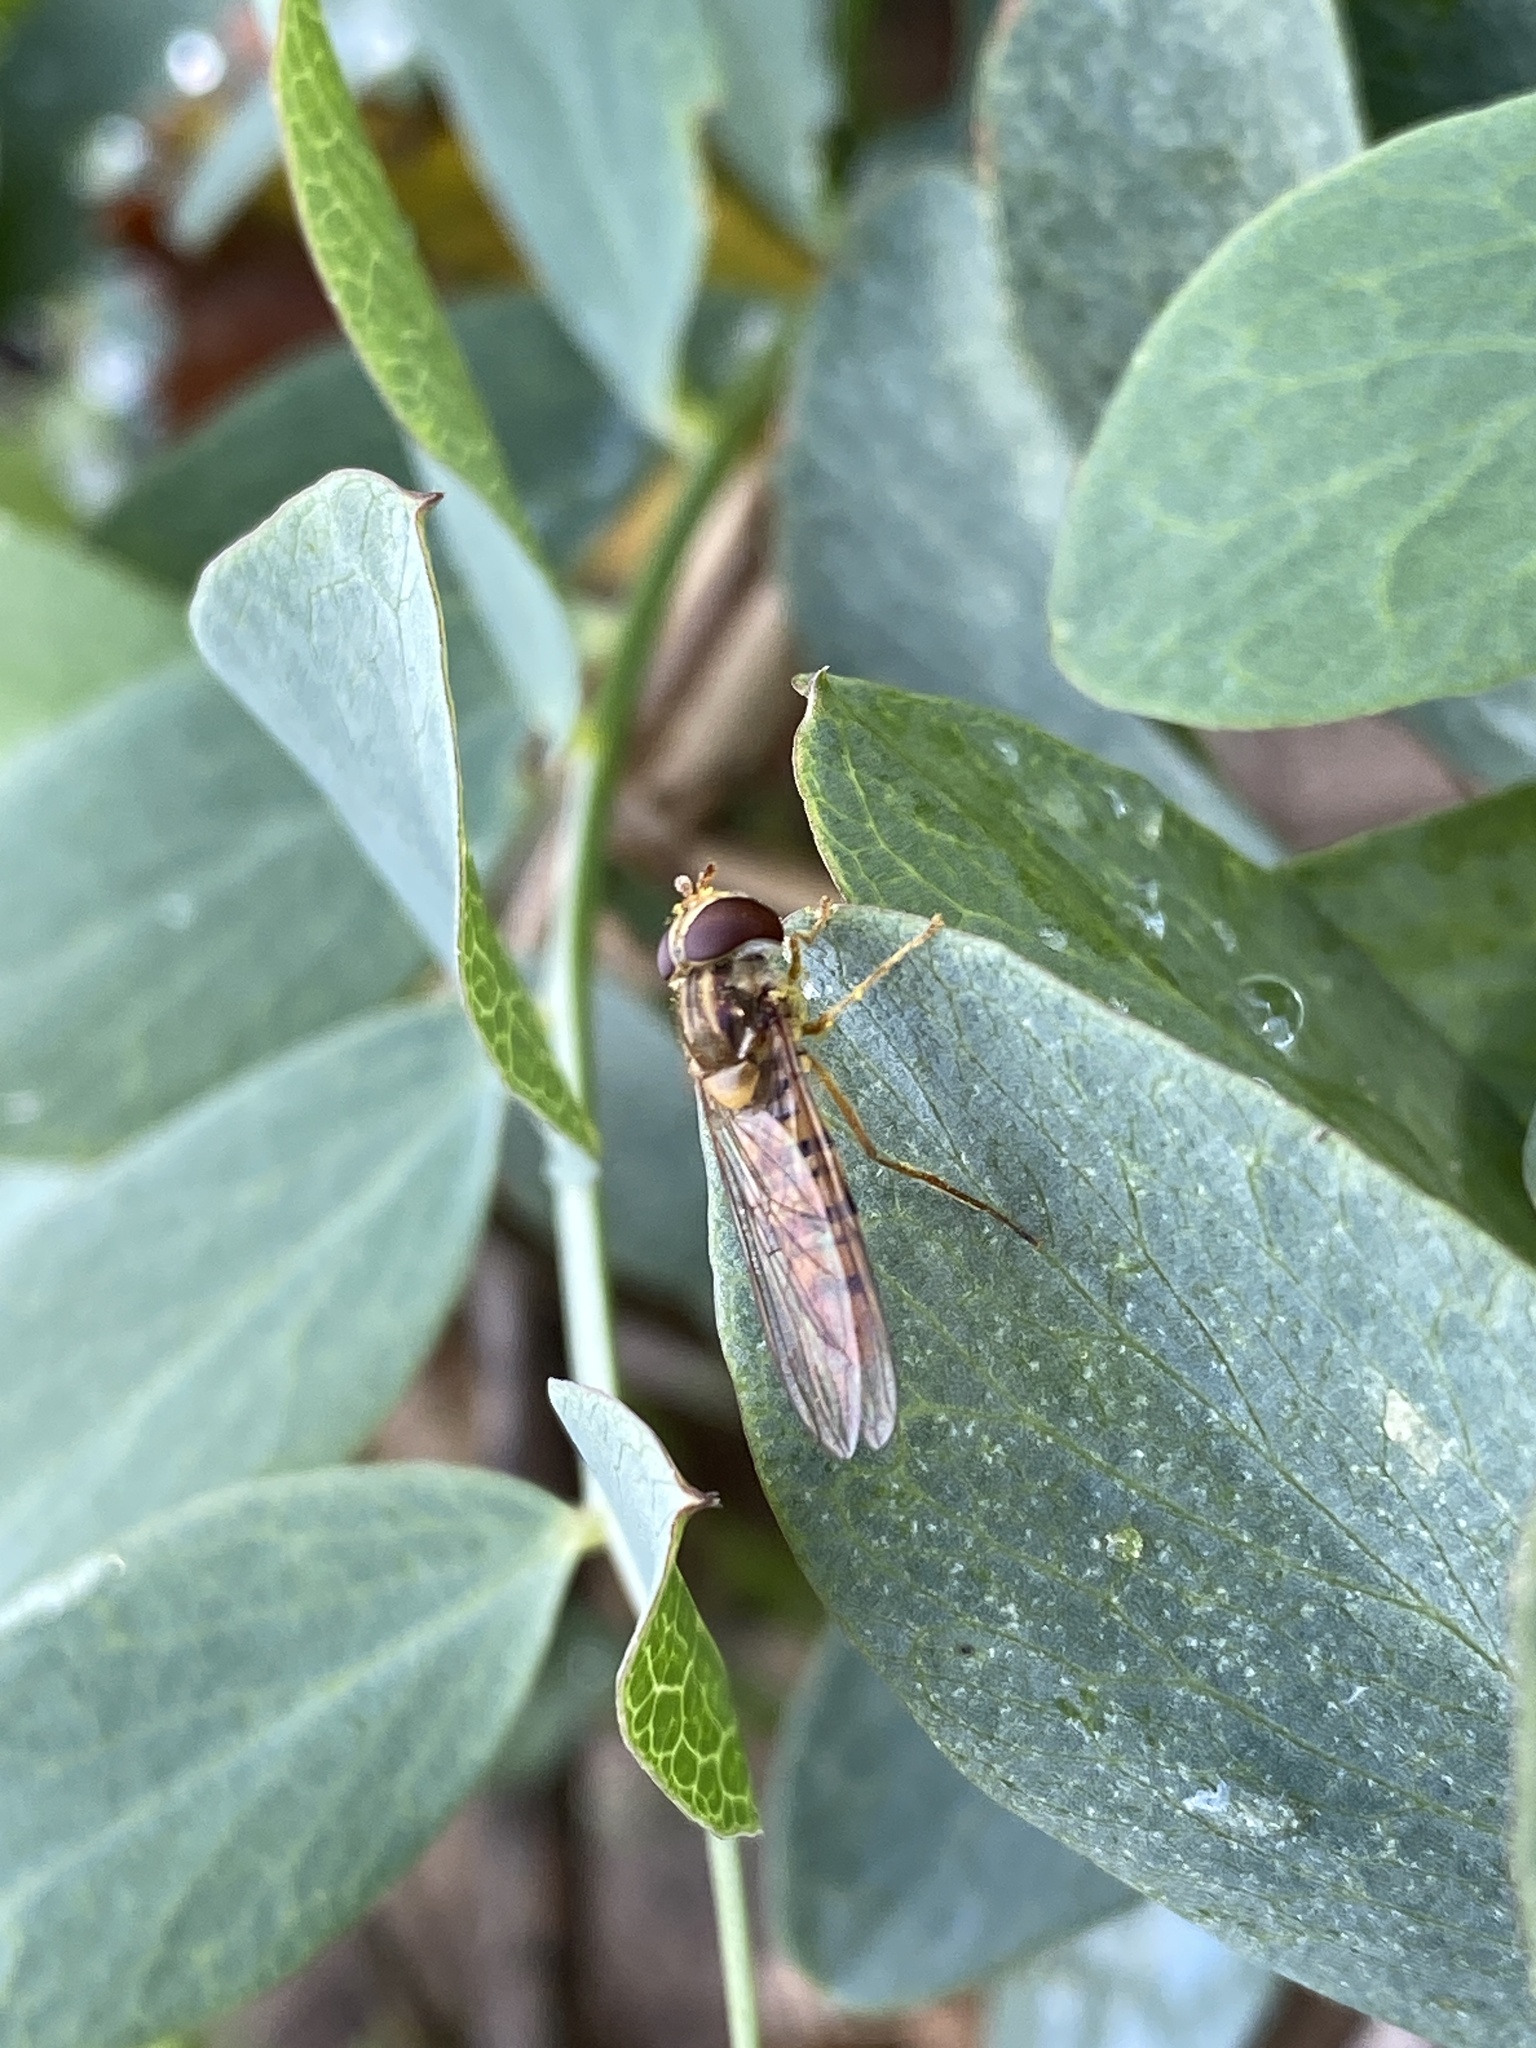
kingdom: Animalia
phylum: Arthropoda
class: Insecta
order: Diptera
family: Syrphidae
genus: Episyrphus
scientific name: Episyrphus balteatus
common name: Marmalade hoverfly
